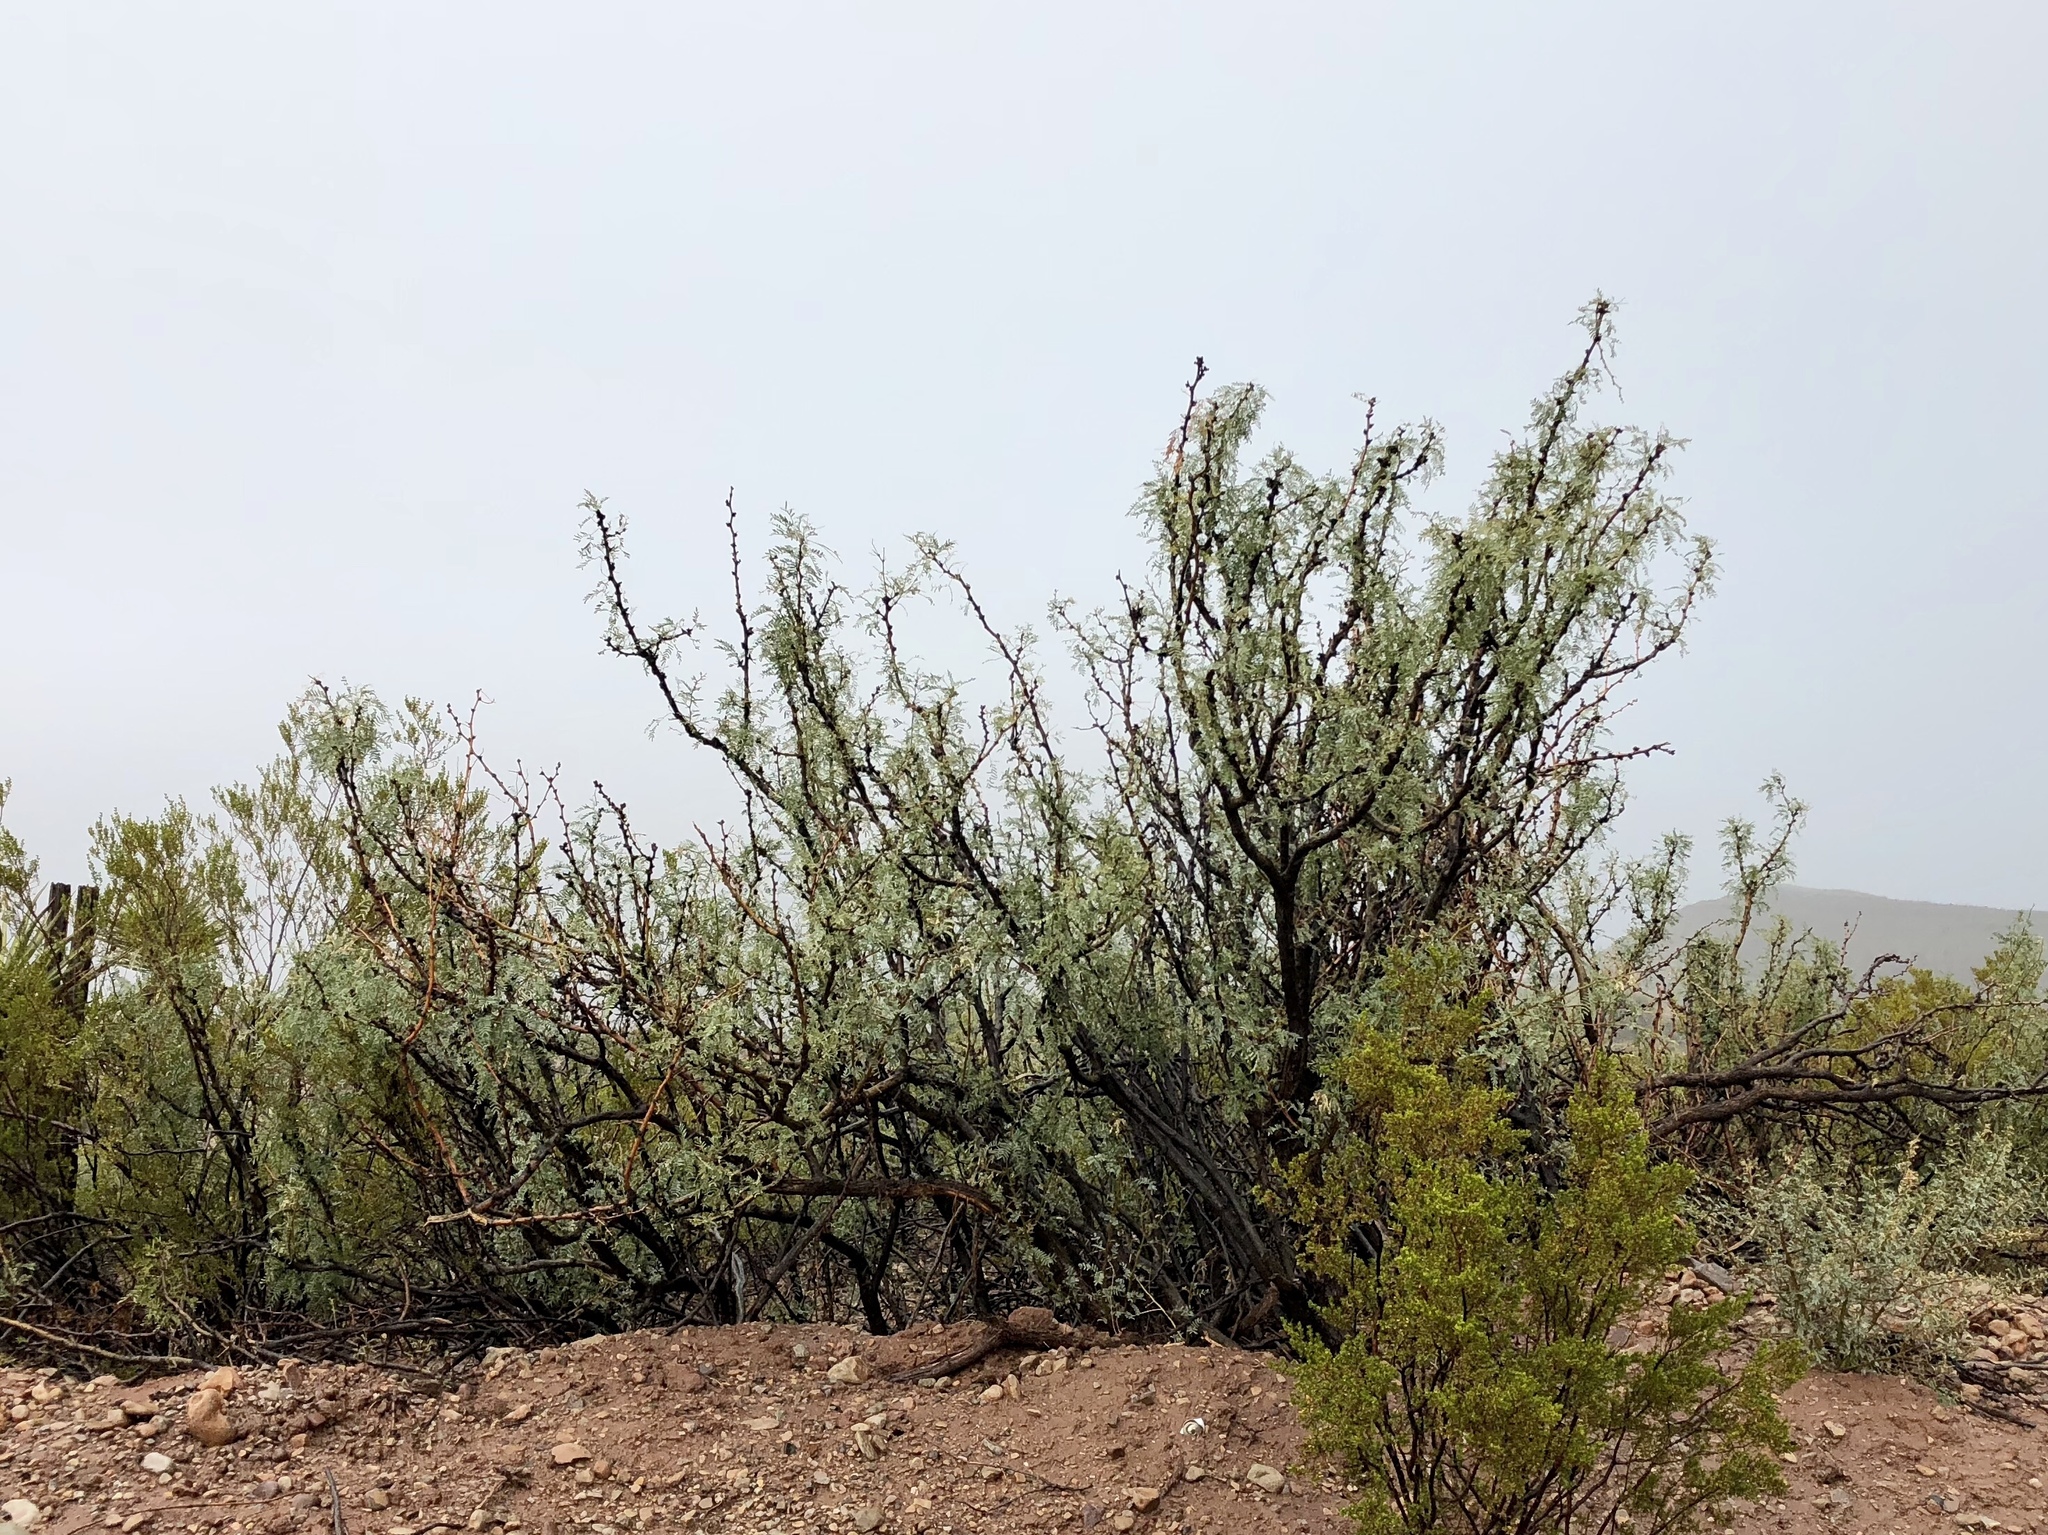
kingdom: Plantae
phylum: Tracheophyta
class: Magnoliopsida
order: Fabales
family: Fabaceae
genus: Prosopis
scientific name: Prosopis glandulosa
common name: Honey mesquite
